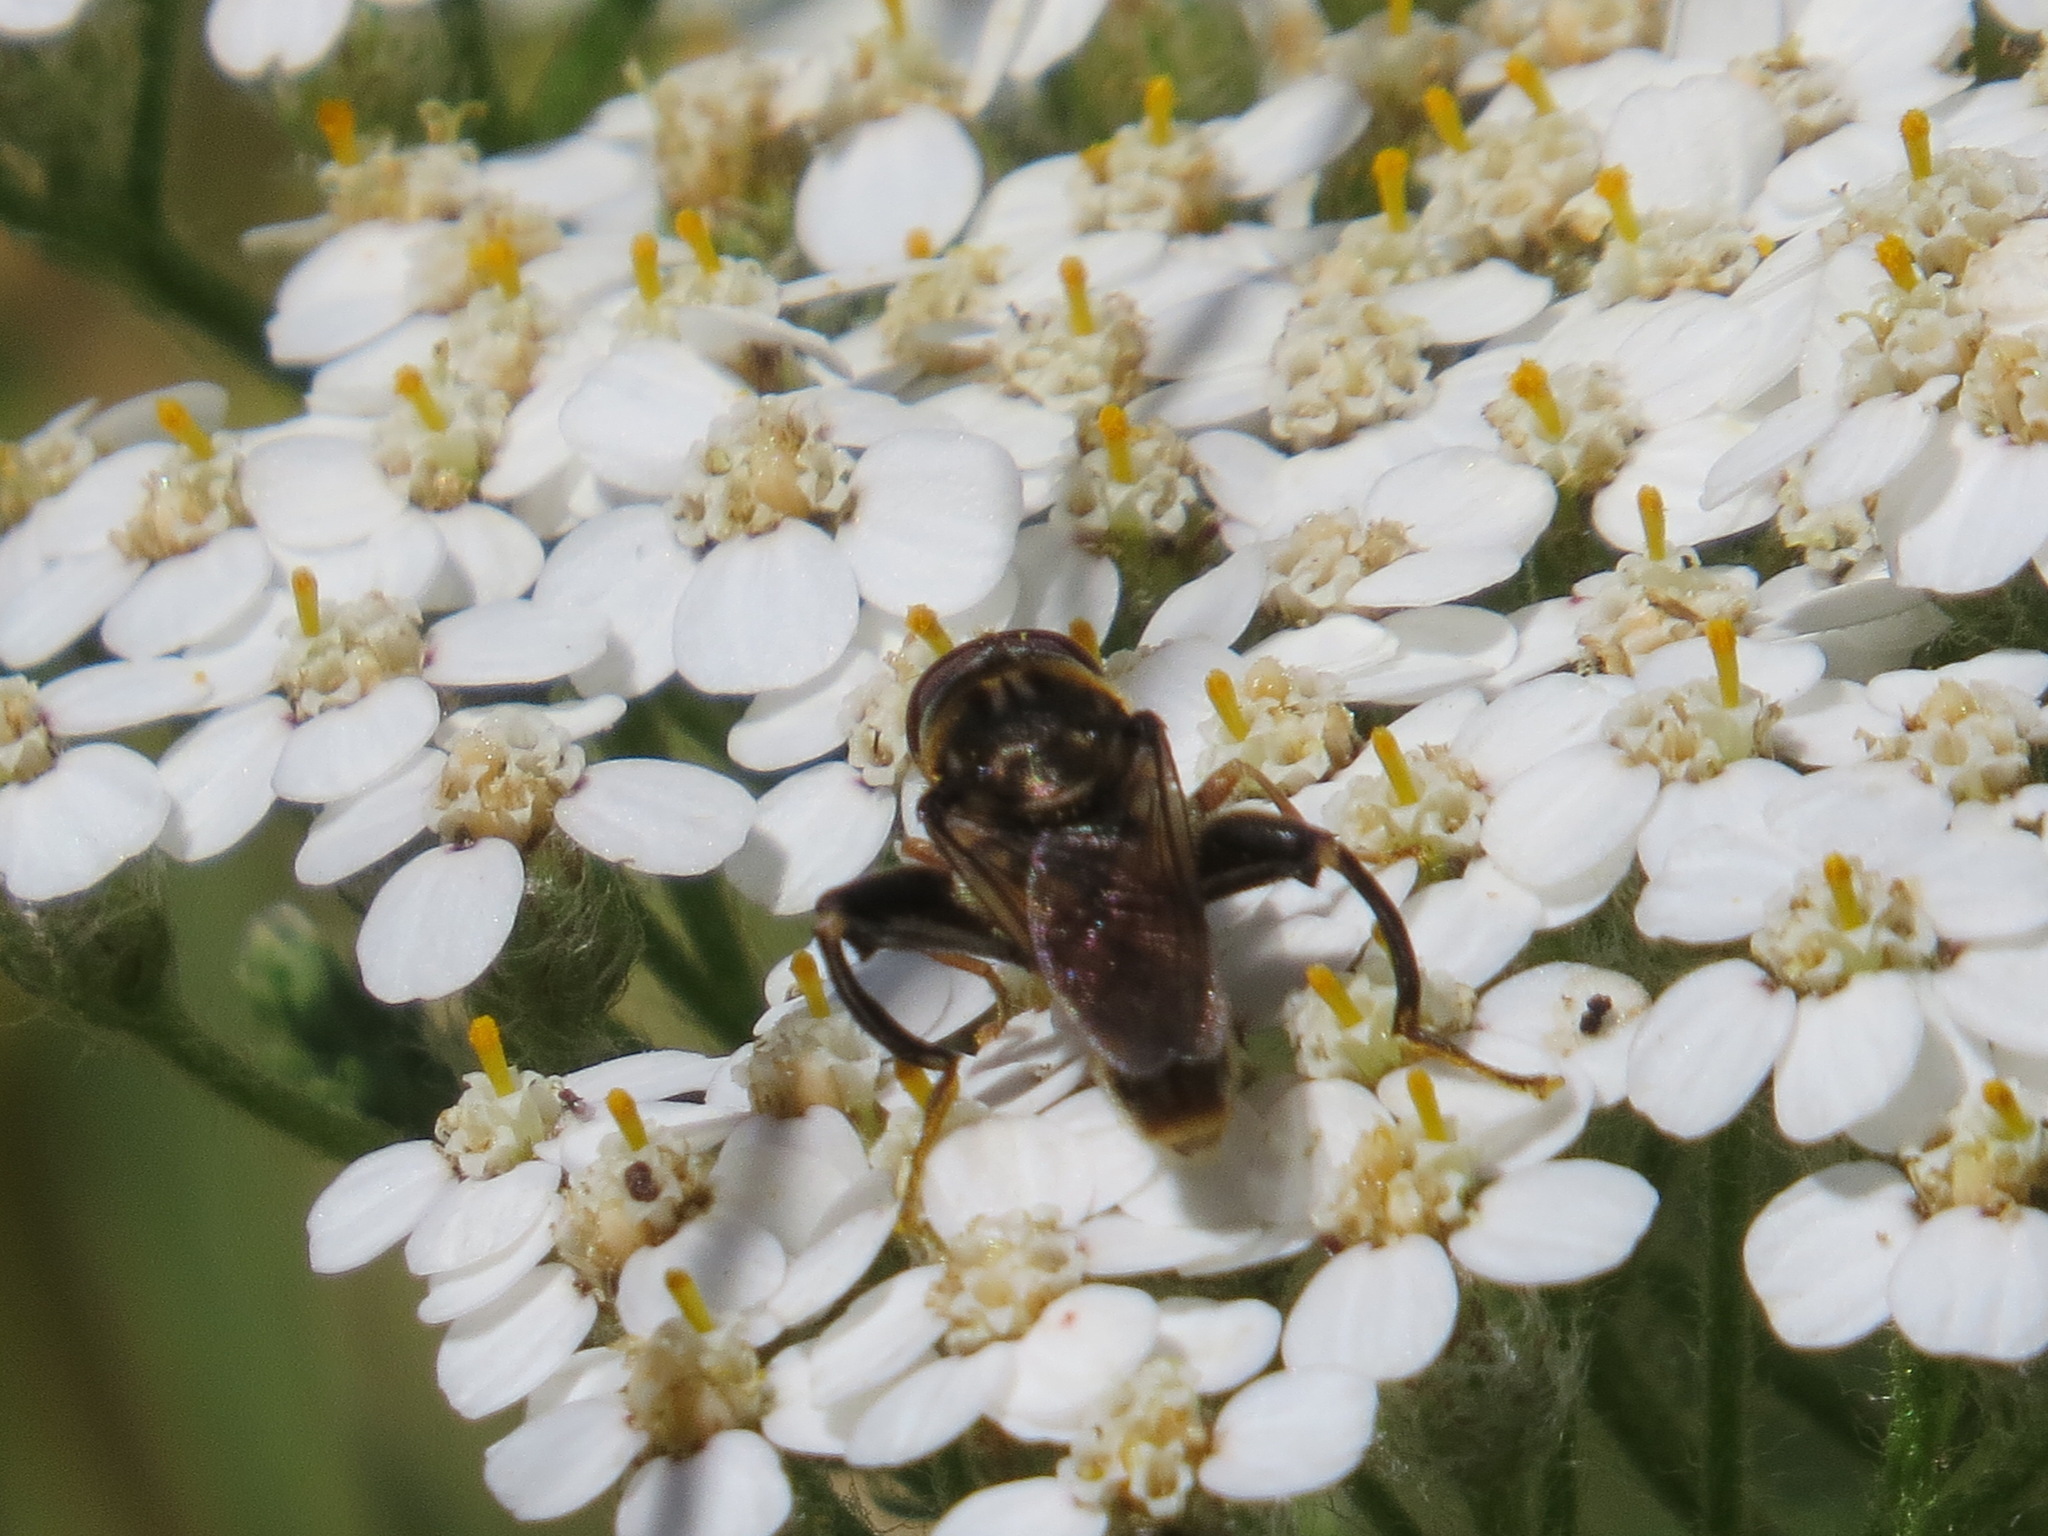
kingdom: Animalia
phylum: Arthropoda
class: Insecta
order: Diptera
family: Syrphidae
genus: Tropidia
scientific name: Tropidia quadrata
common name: Common thick-legged fly
